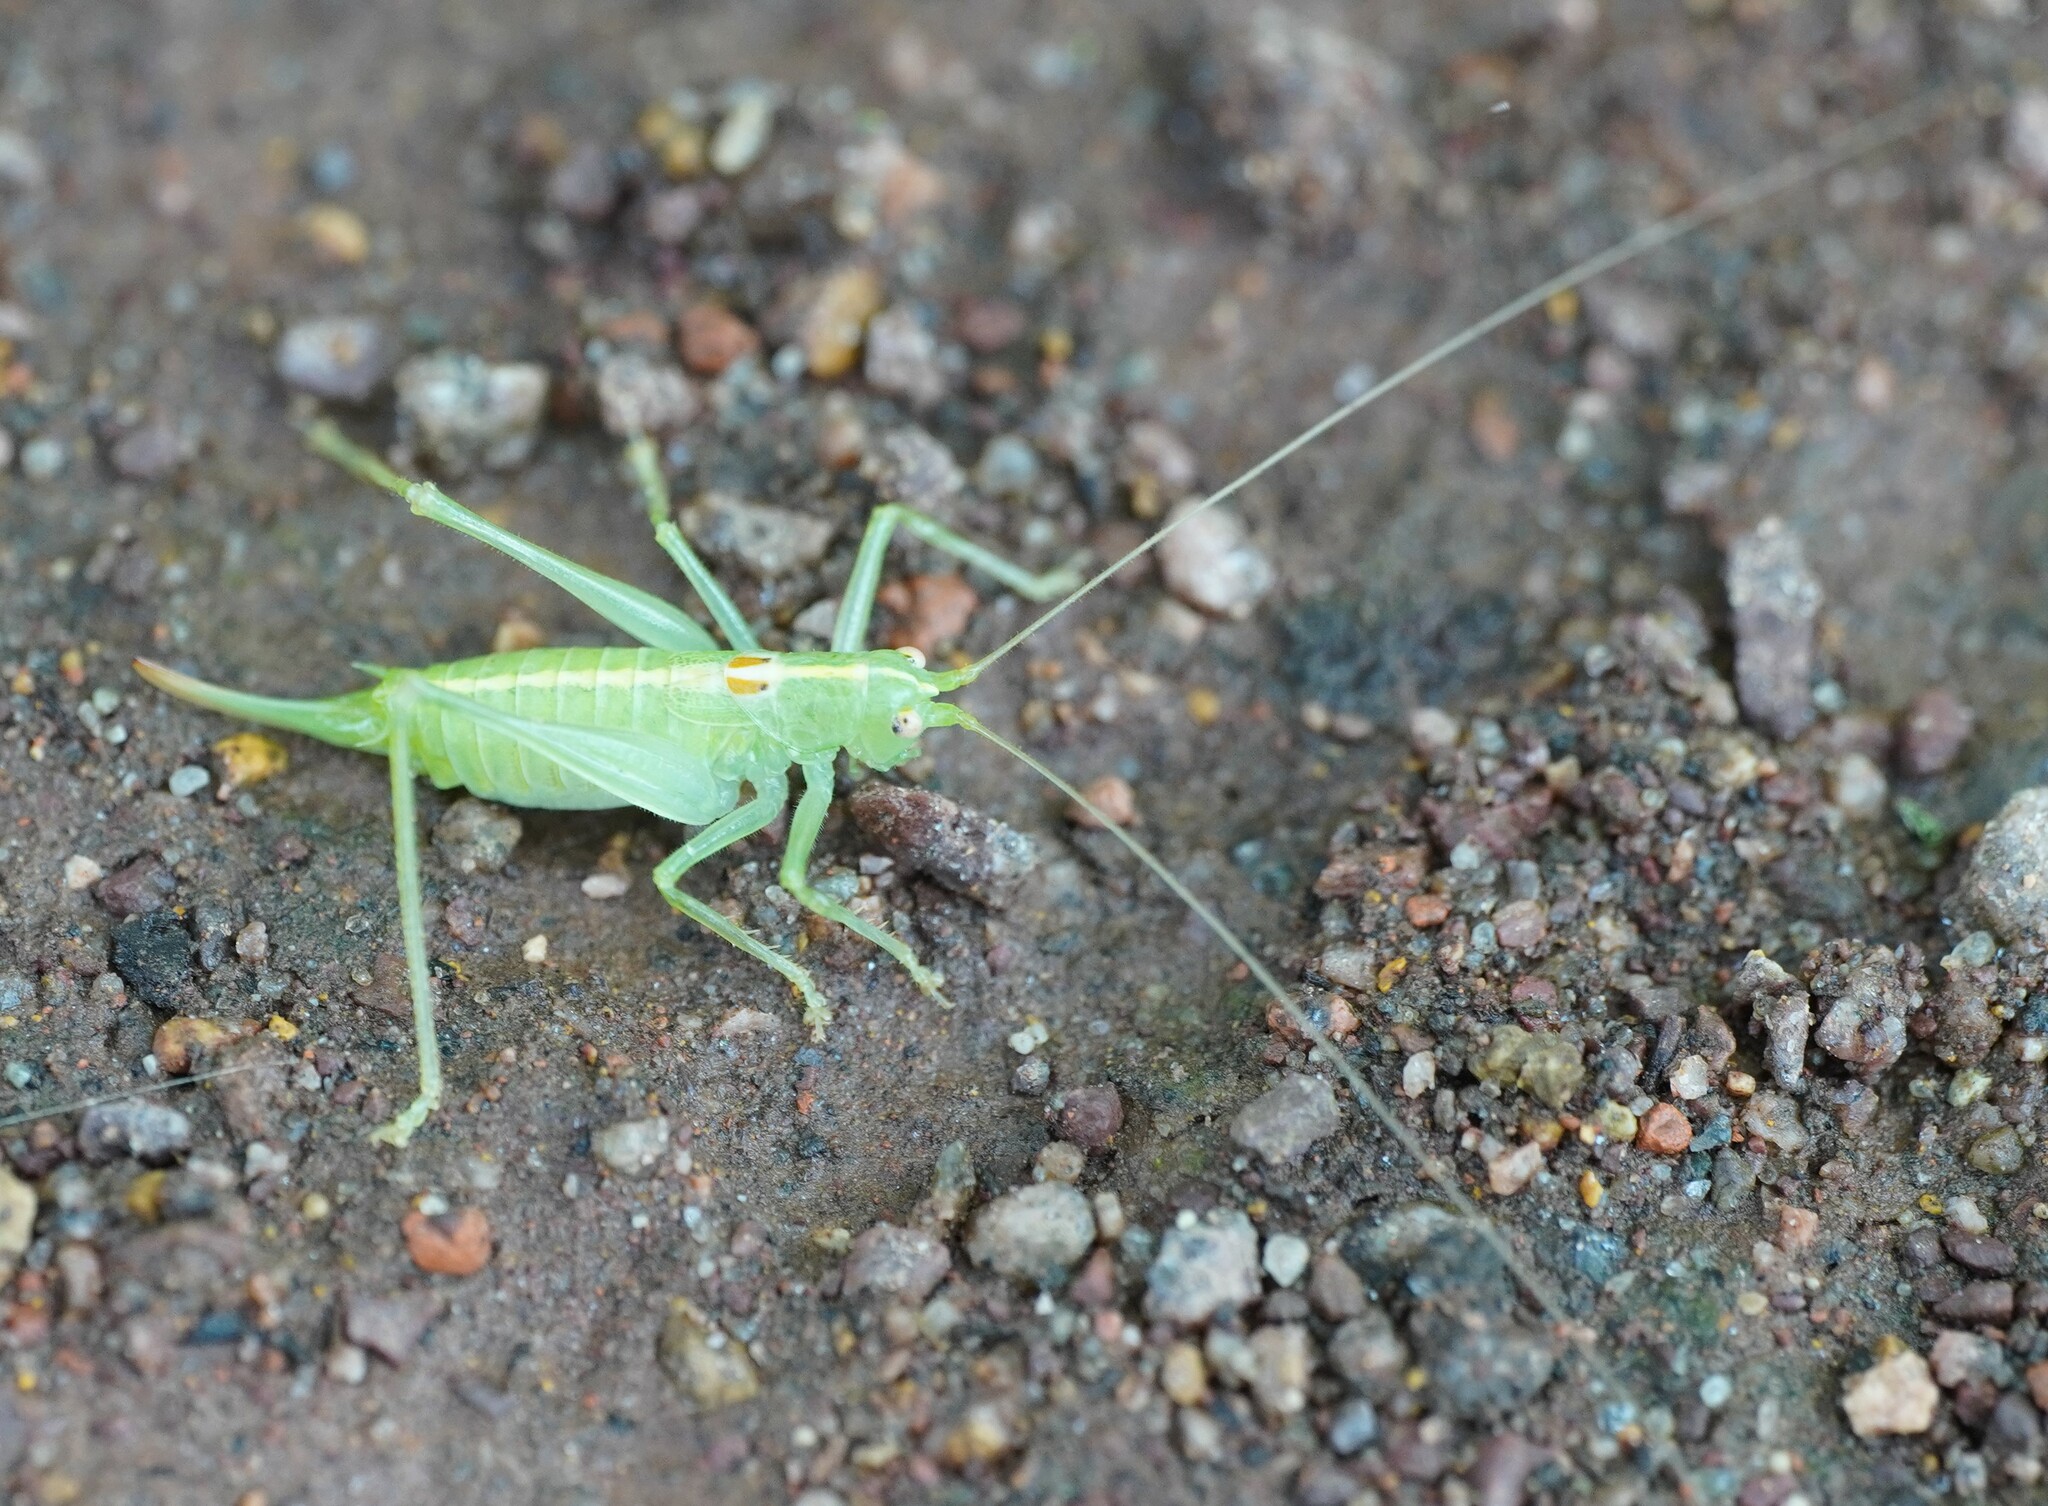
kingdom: Animalia
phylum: Arthropoda
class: Insecta
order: Orthoptera
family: Tettigoniidae
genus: Meconema
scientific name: Meconema meridionale
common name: Southern oak bush-cricket
